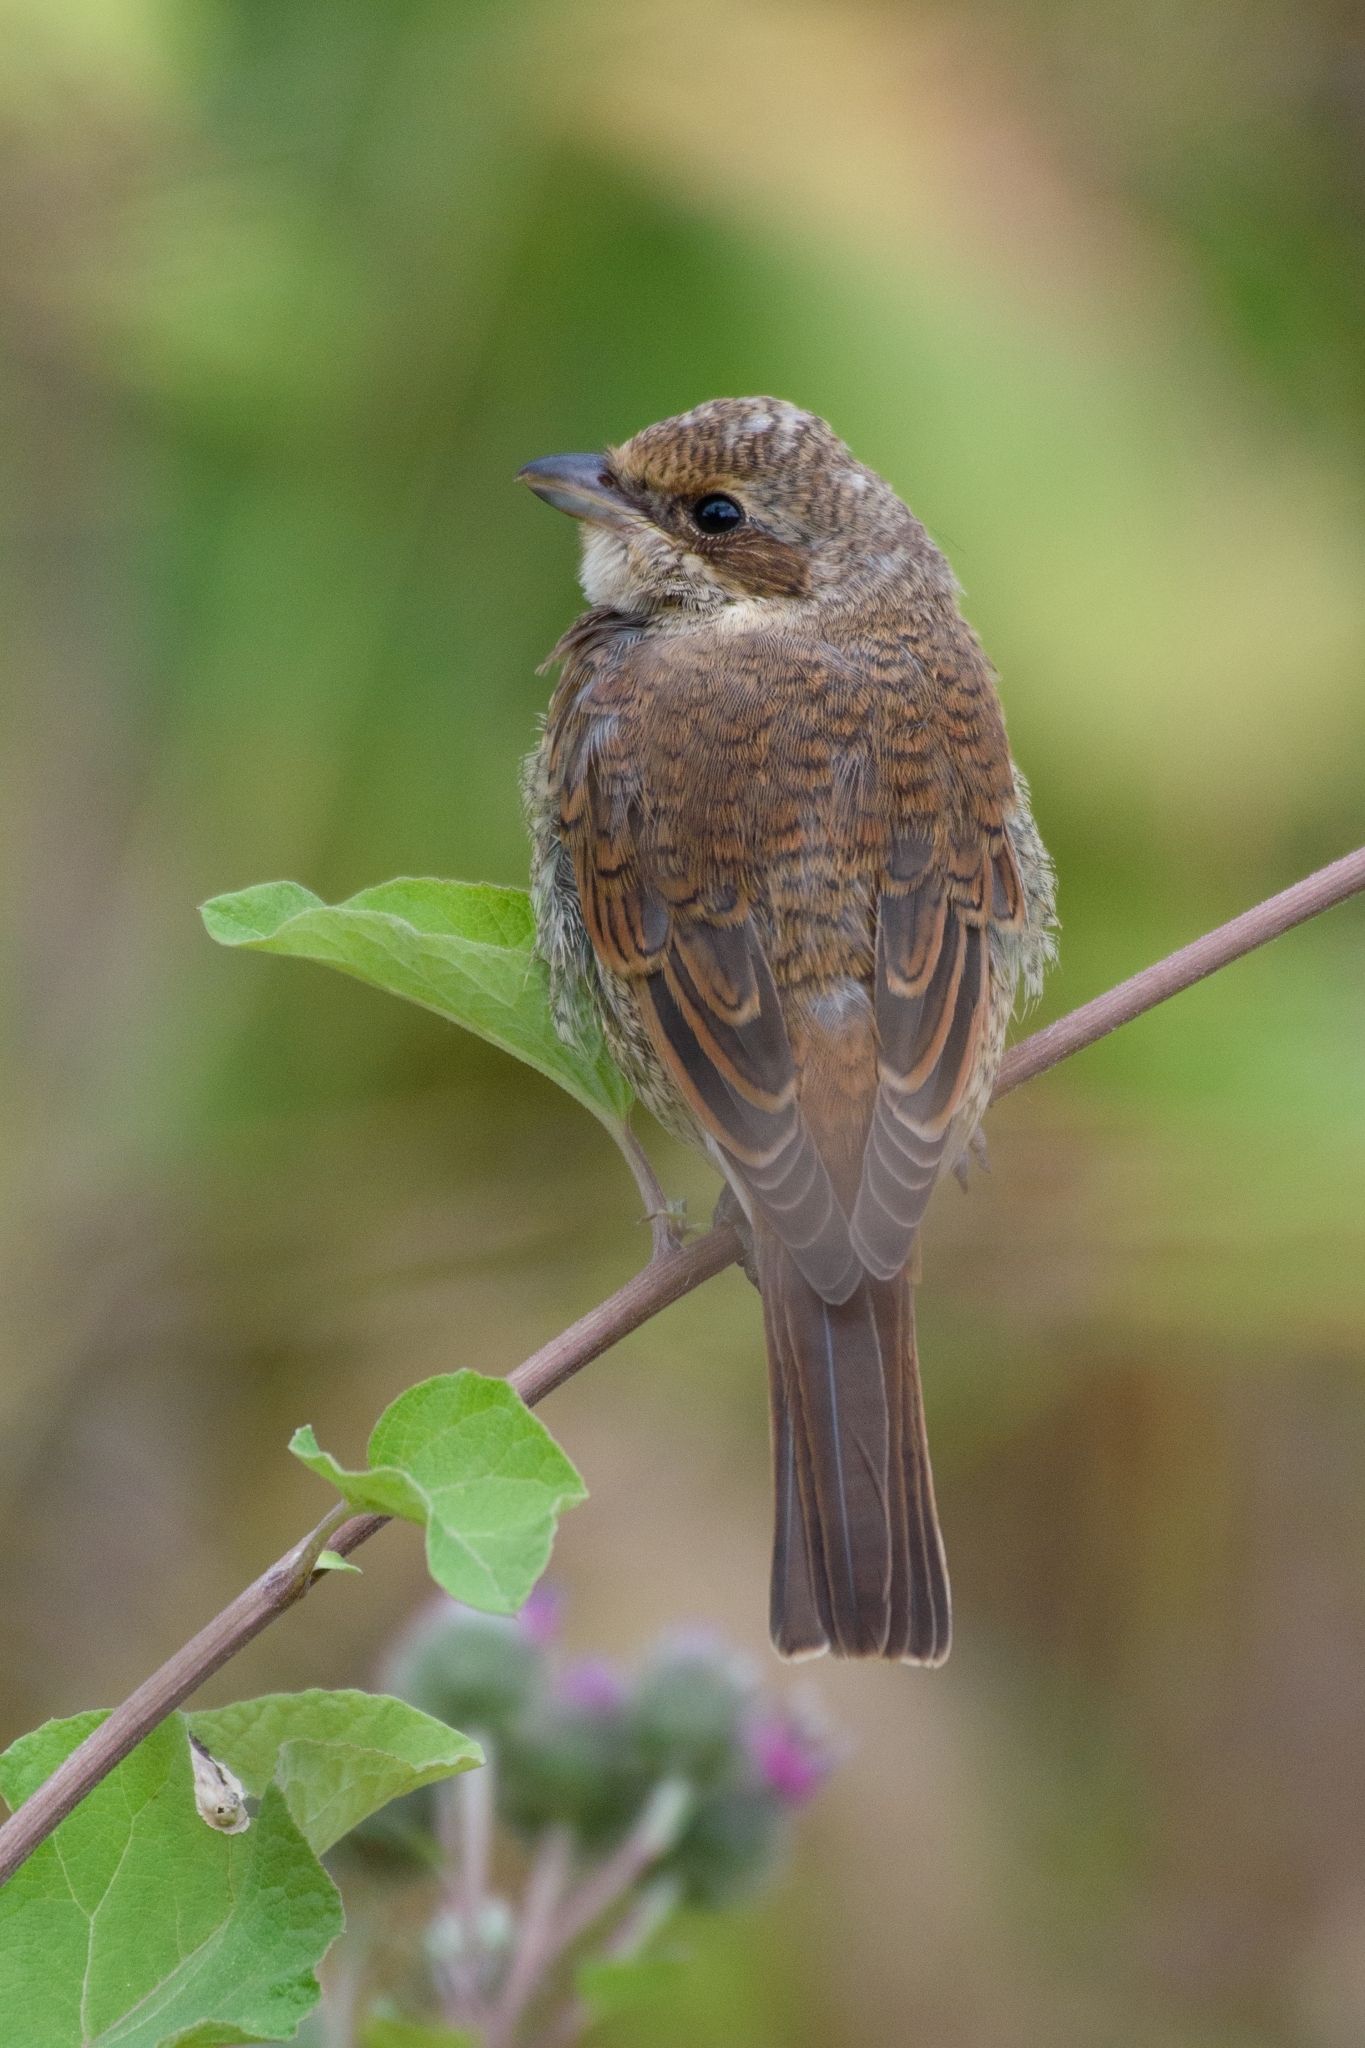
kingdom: Animalia
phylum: Chordata
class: Aves
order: Passeriformes
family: Laniidae
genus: Lanius
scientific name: Lanius collurio
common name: Red-backed shrike
